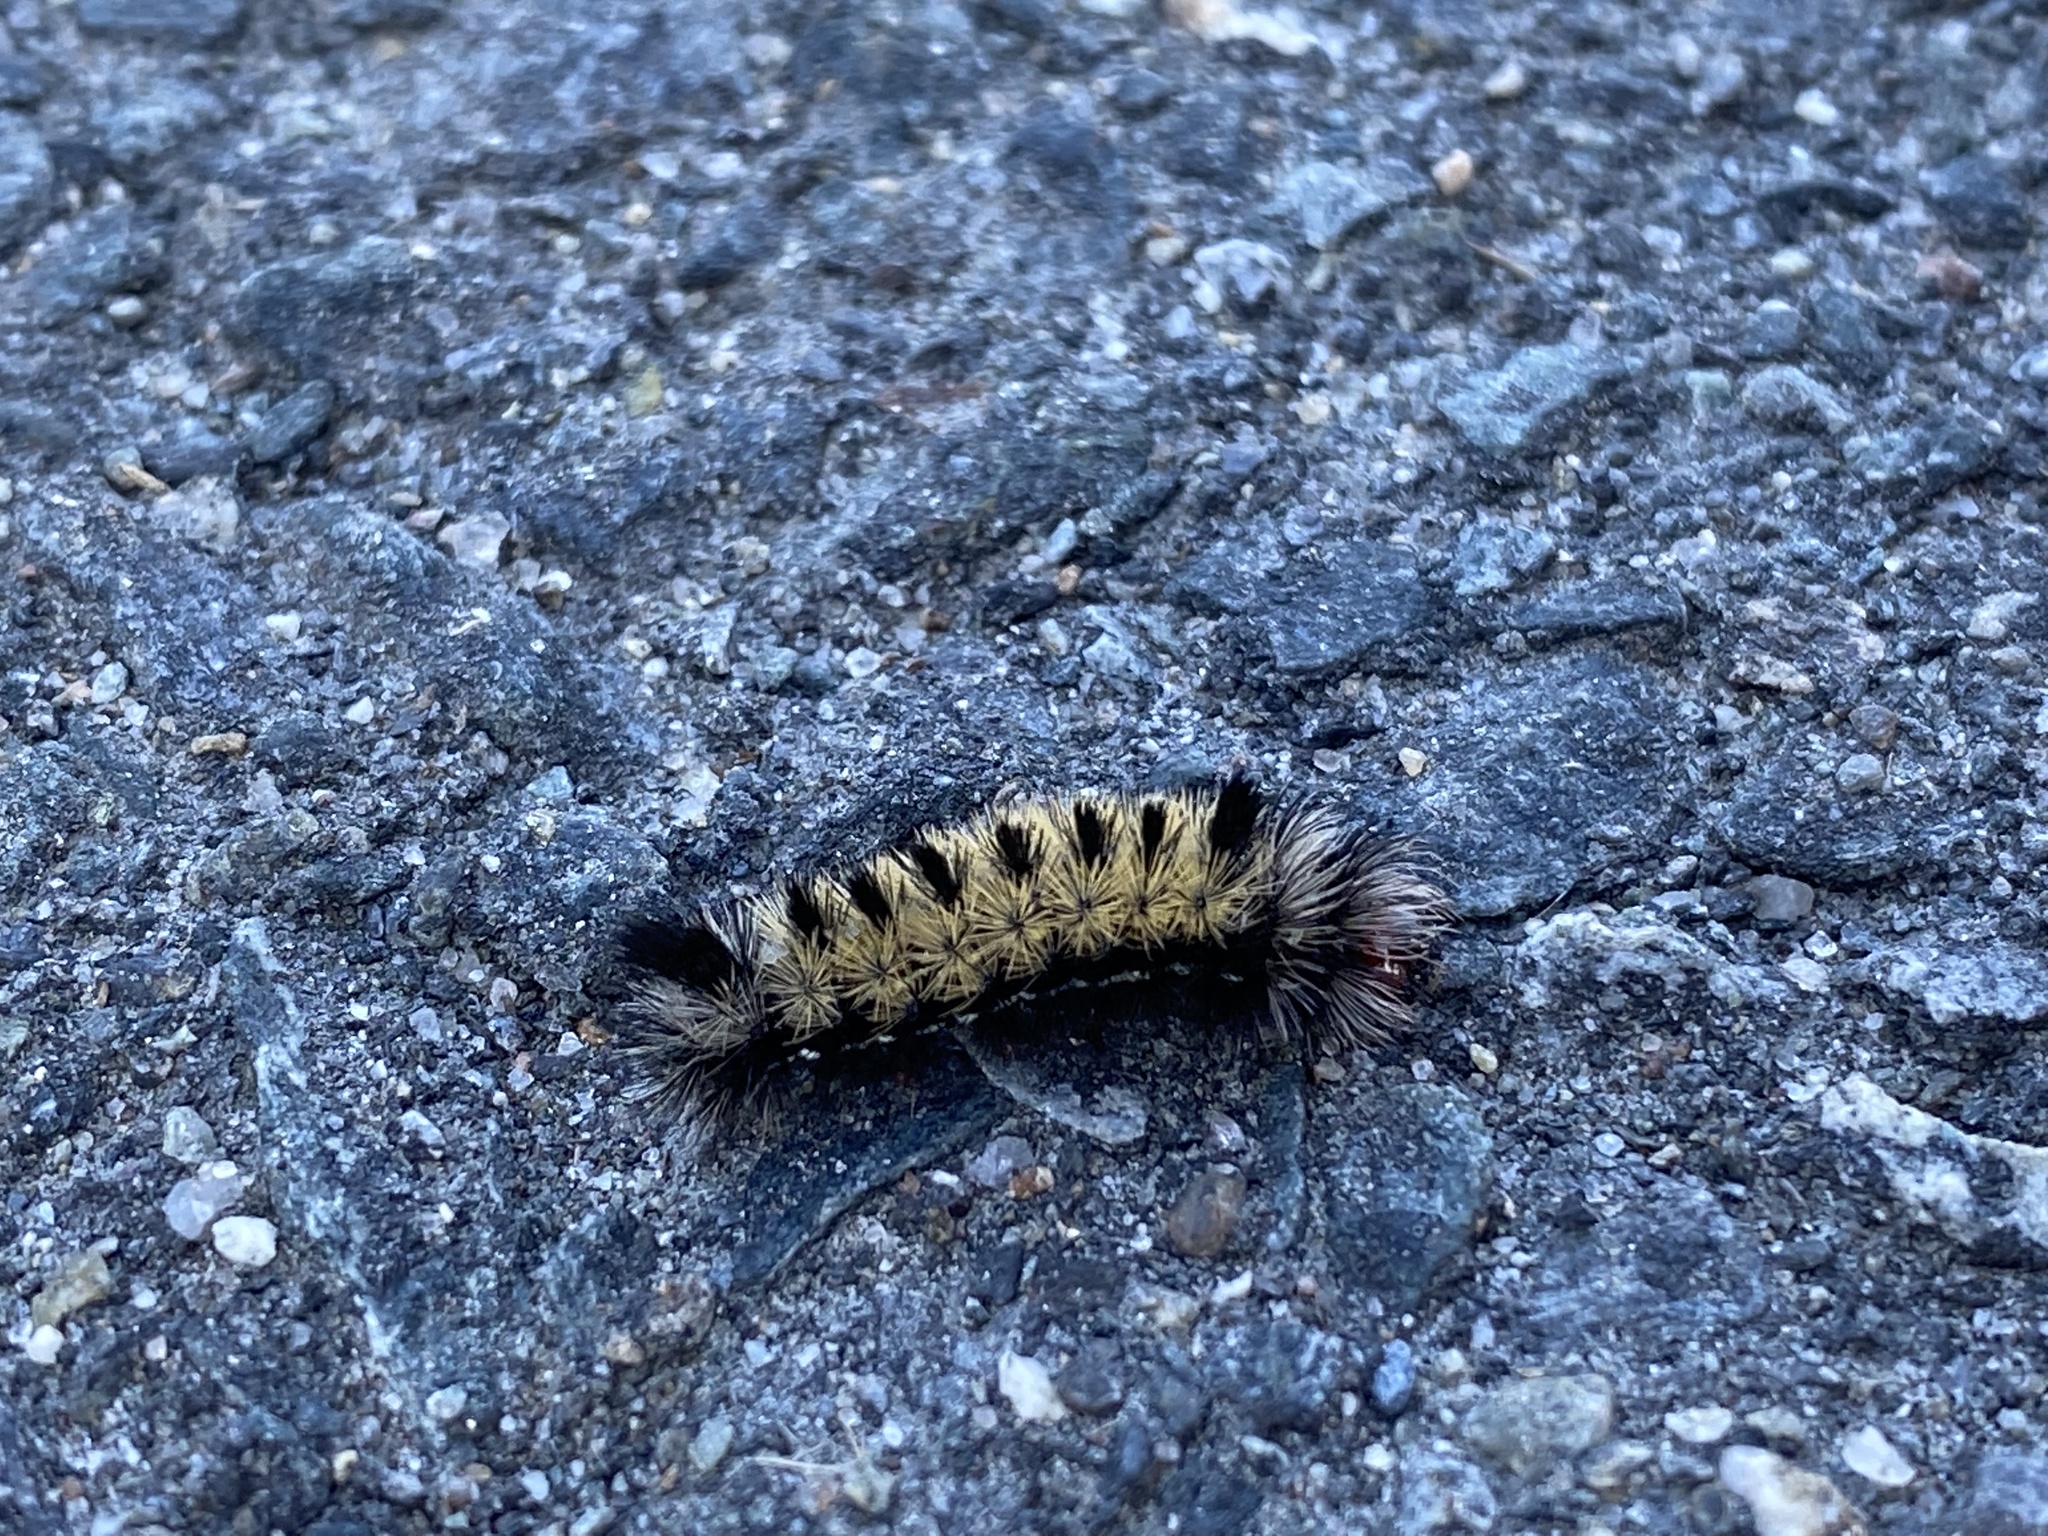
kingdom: Animalia
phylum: Arthropoda
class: Insecta
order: Lepidoptera
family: Erebidae
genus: Ctenucha
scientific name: Ctenucha virginica
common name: Virginia ctenucha moth
